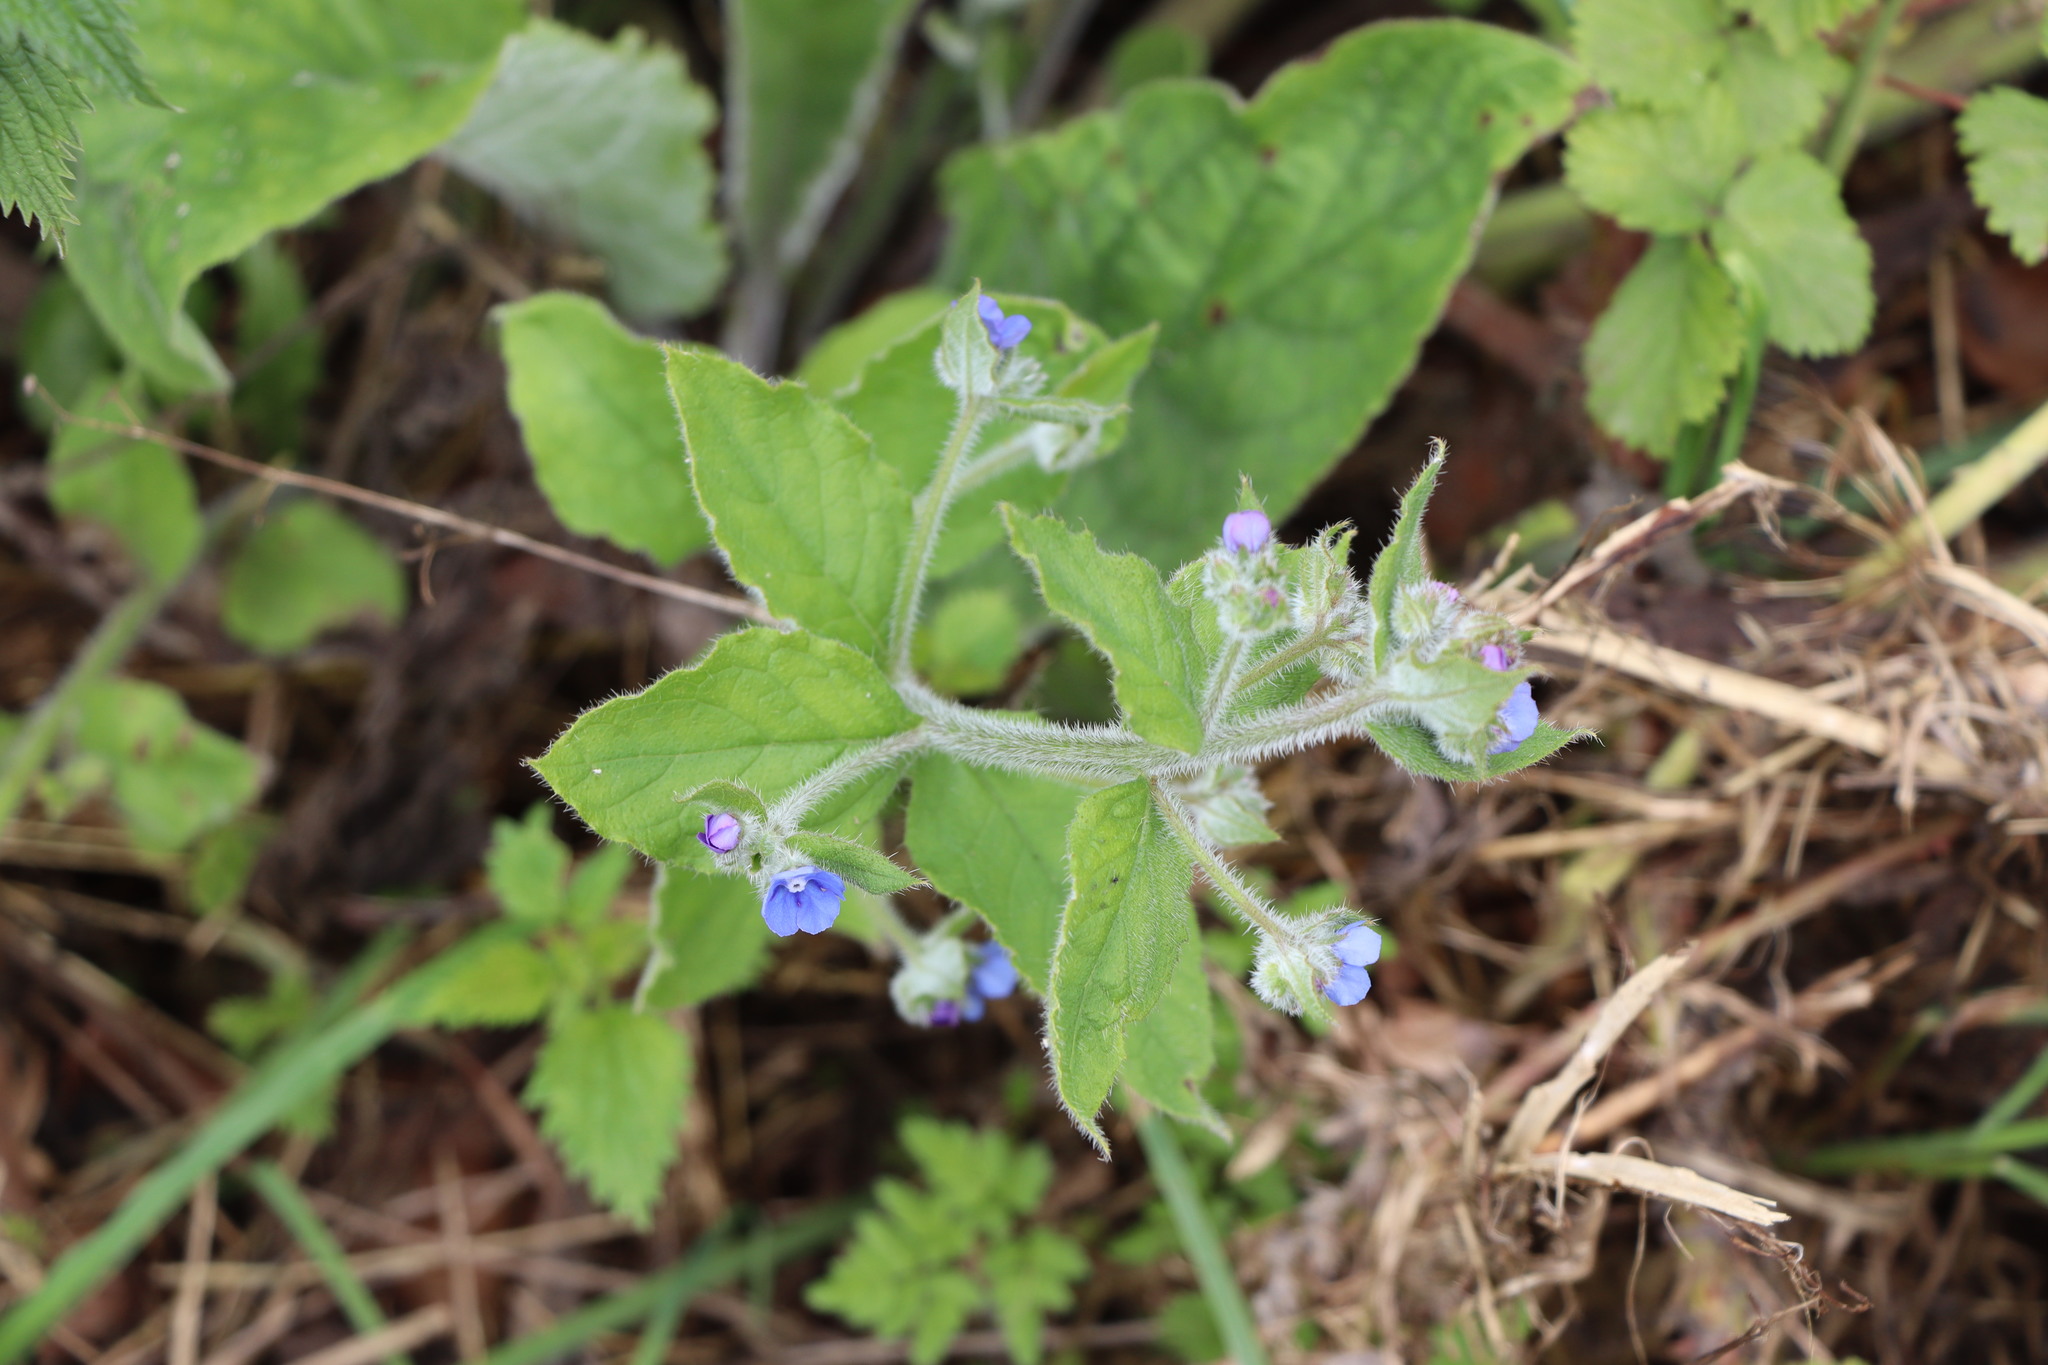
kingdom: Plantae
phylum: Tracheophyta
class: Magnoliopsida
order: Boraginales
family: Boraginaceae
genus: Pentaglottis
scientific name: Pentaglottis sempervirens
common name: Green alkanet
